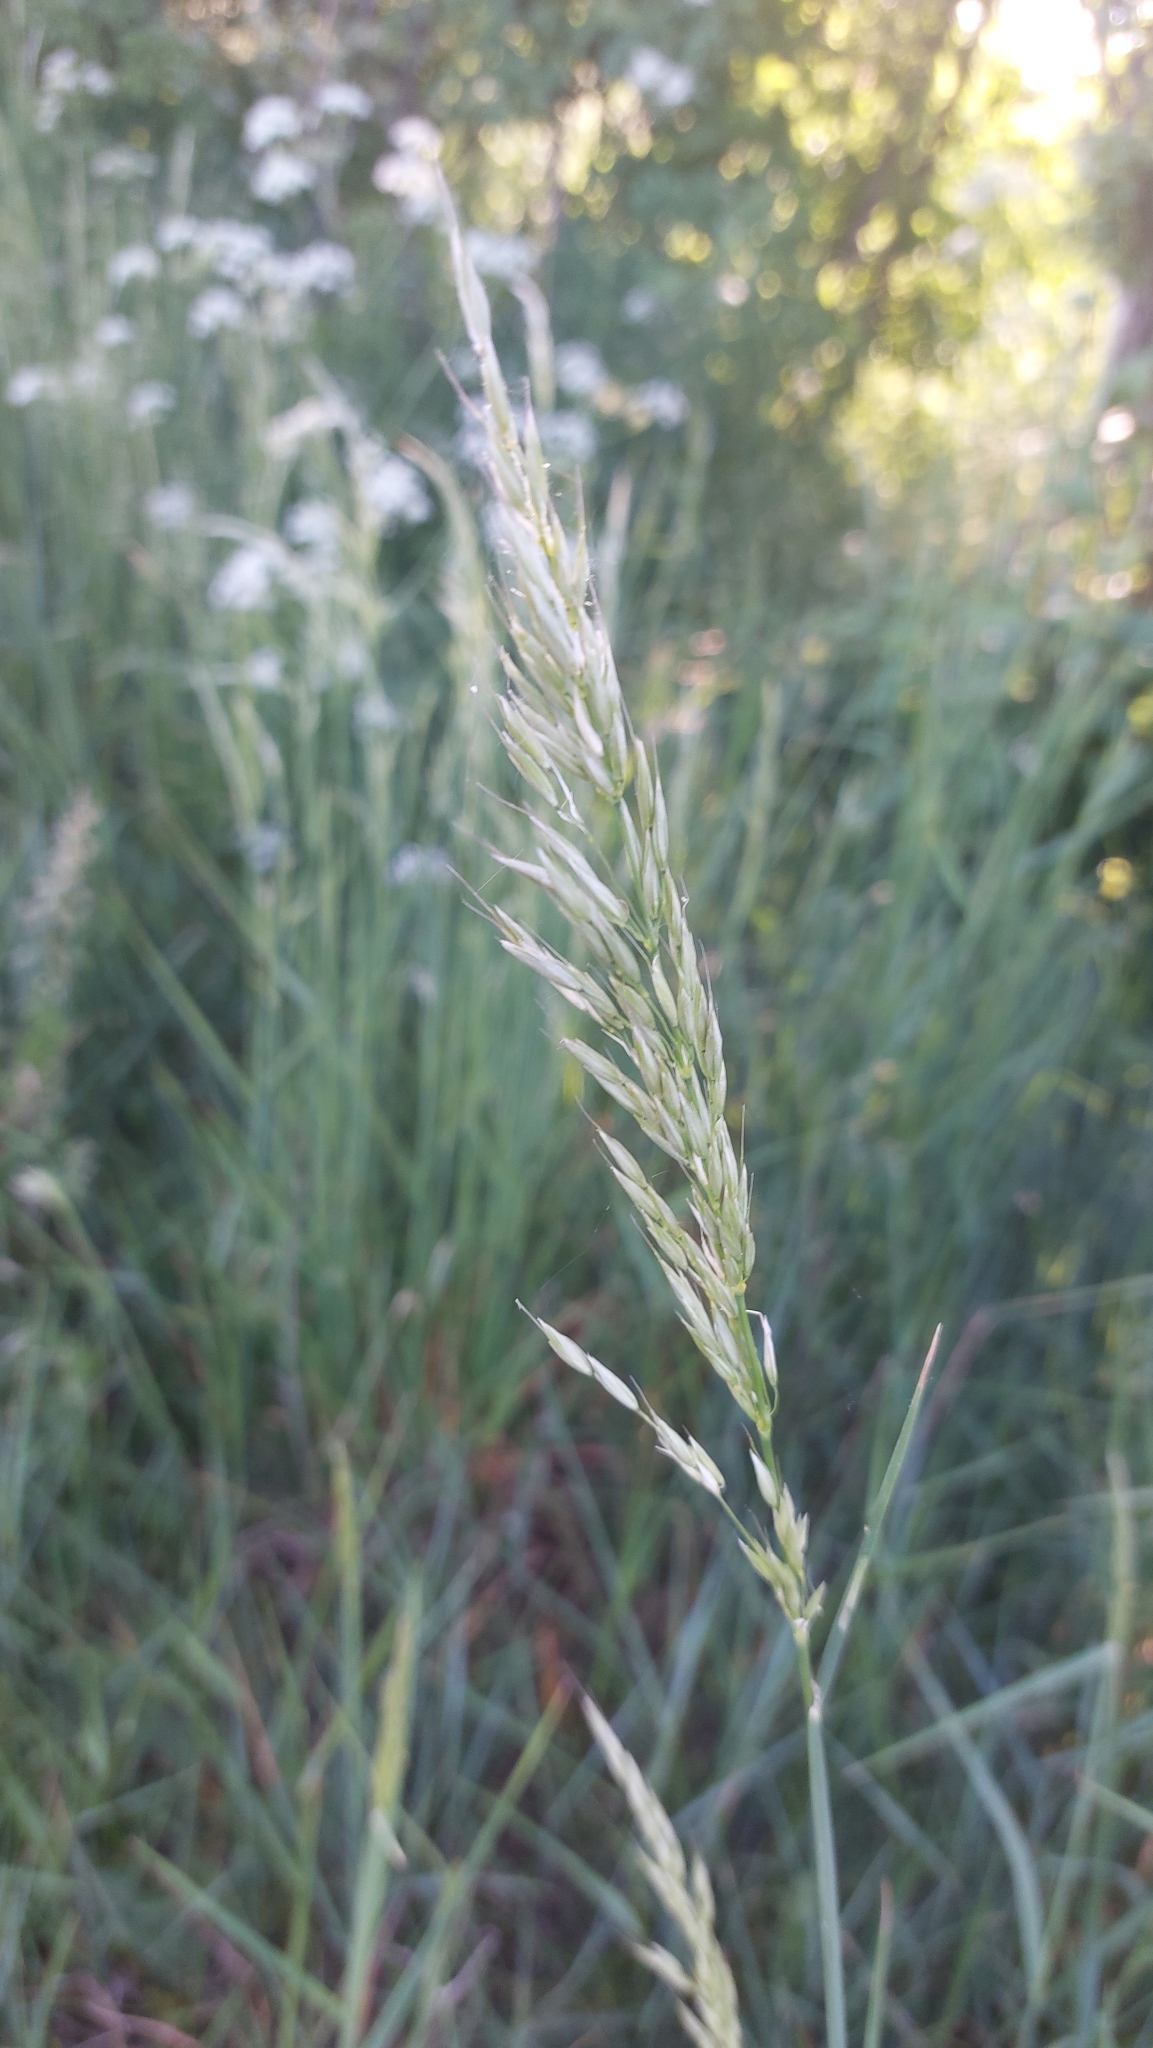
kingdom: Plantae
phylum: Tracheophyta
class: Liliopsida
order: Poales
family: Poaceae
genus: Arrhenatherum
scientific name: Arrhenatherum elatius
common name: Tall oatgrass
